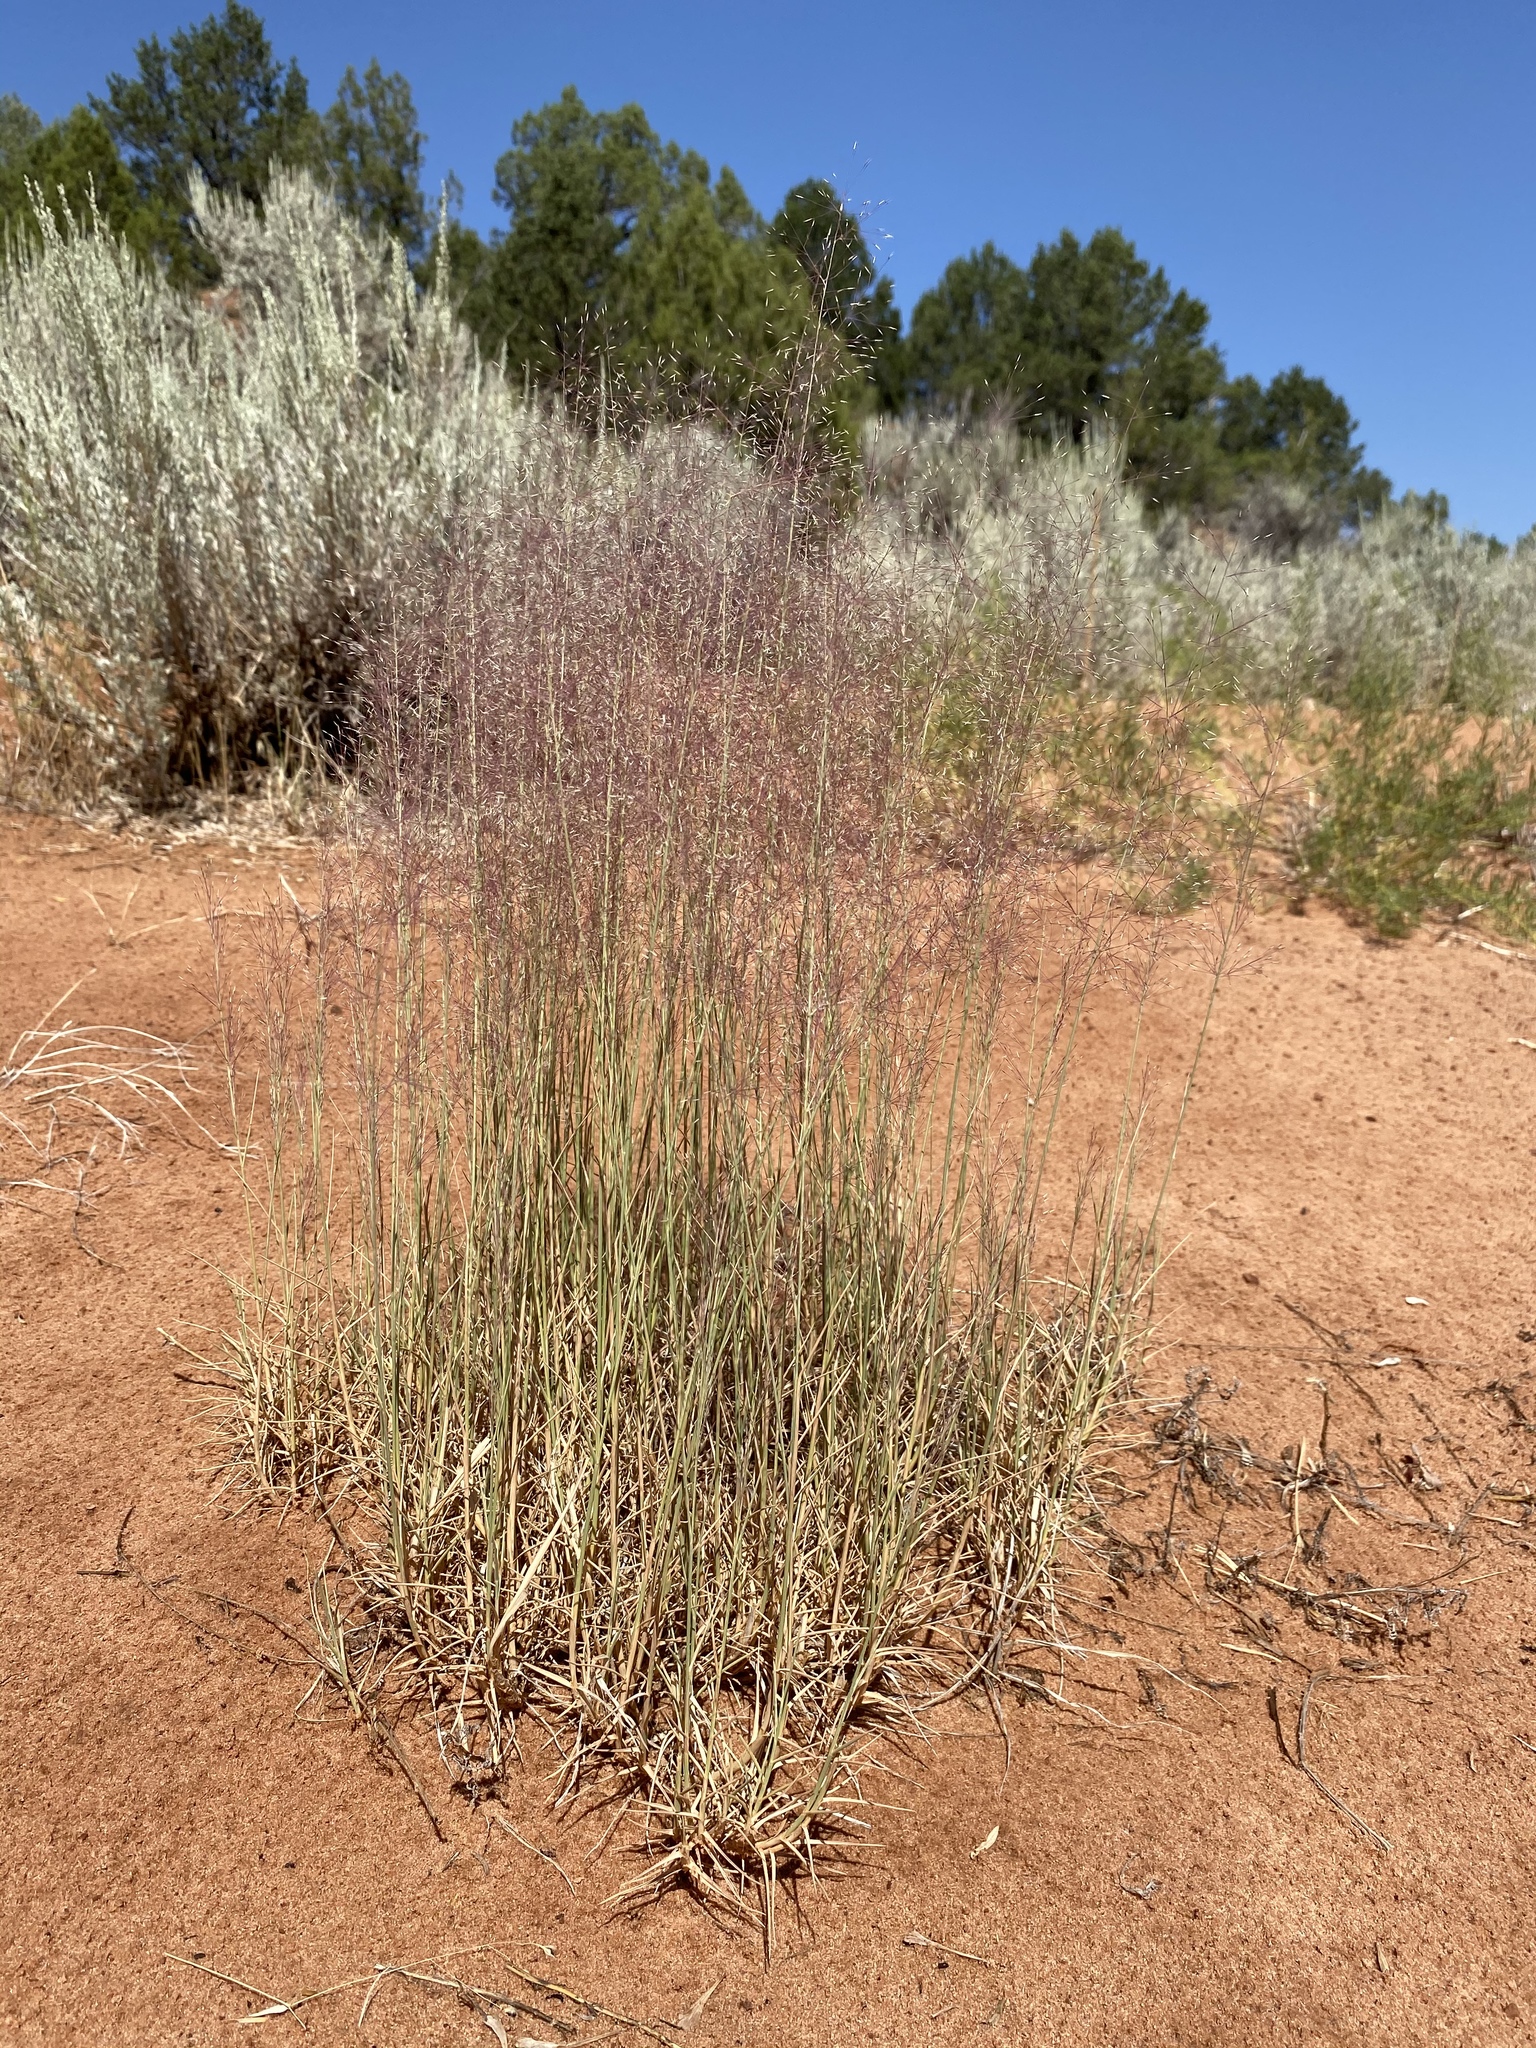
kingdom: Plantae
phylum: Tracheophyta
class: Liliopsida
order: Poales
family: Poaceae
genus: Muhlenbergia
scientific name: Muhlenbergia pungens
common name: Sandhill muhly
